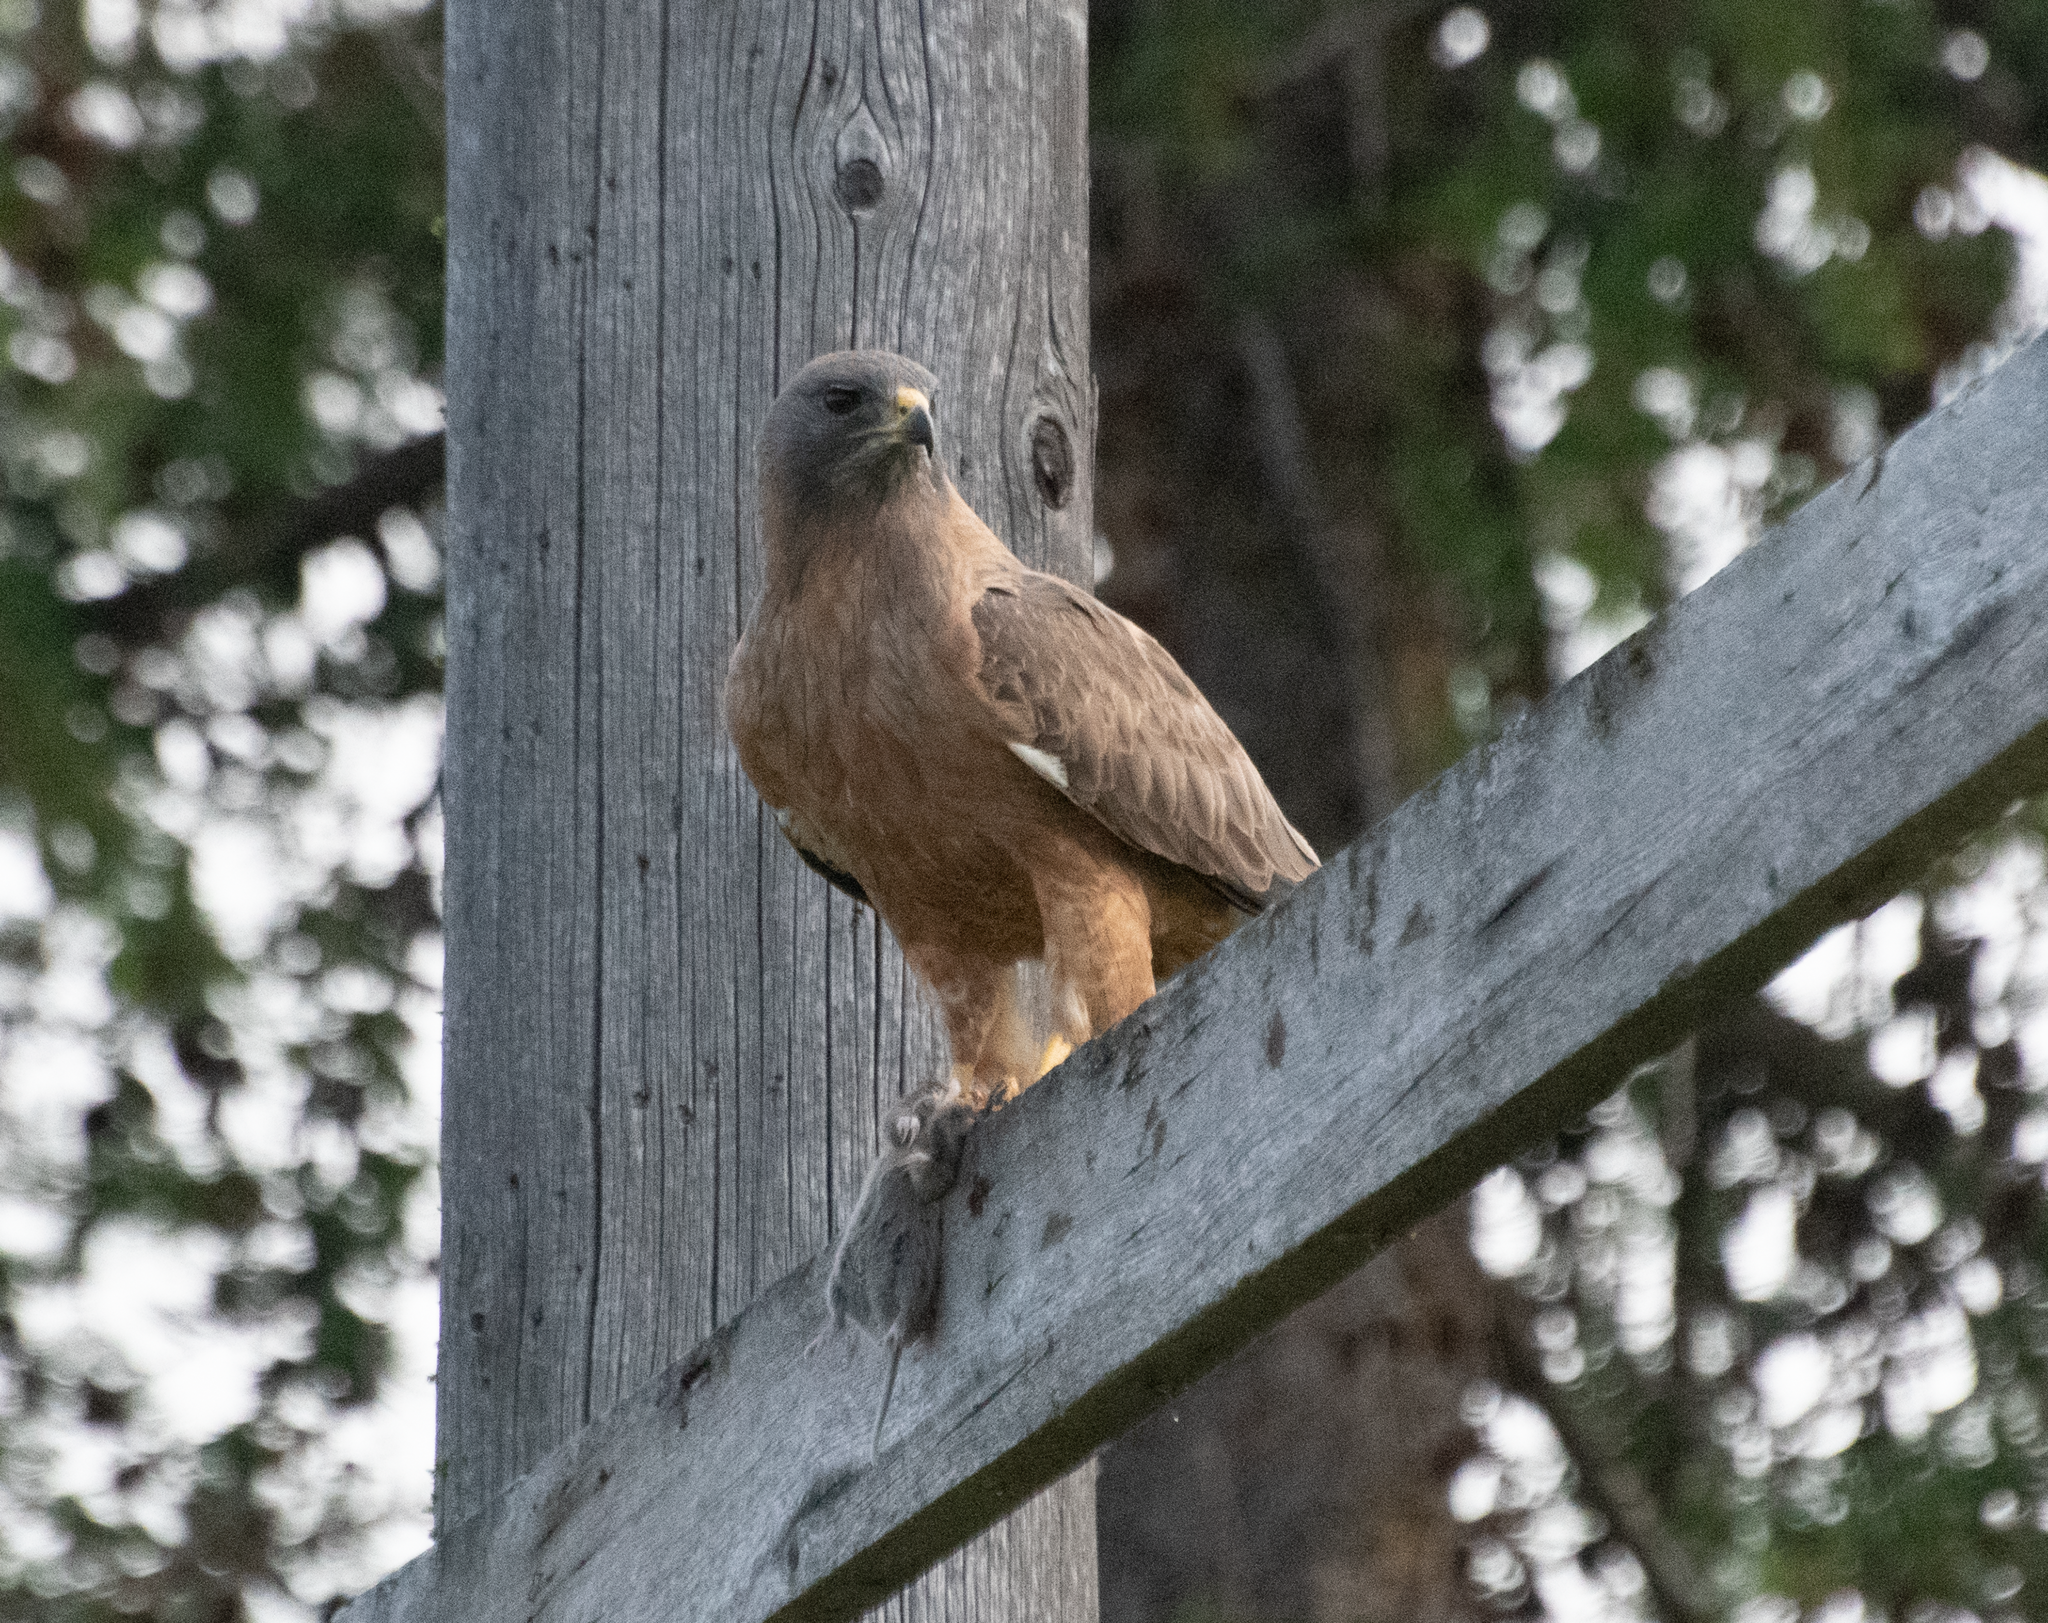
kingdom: Animalia
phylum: Chordata
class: Aves
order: Accipitriformes
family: Accipitridae
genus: Buteo
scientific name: Buteo swainsoni
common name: Swainson's hawk
